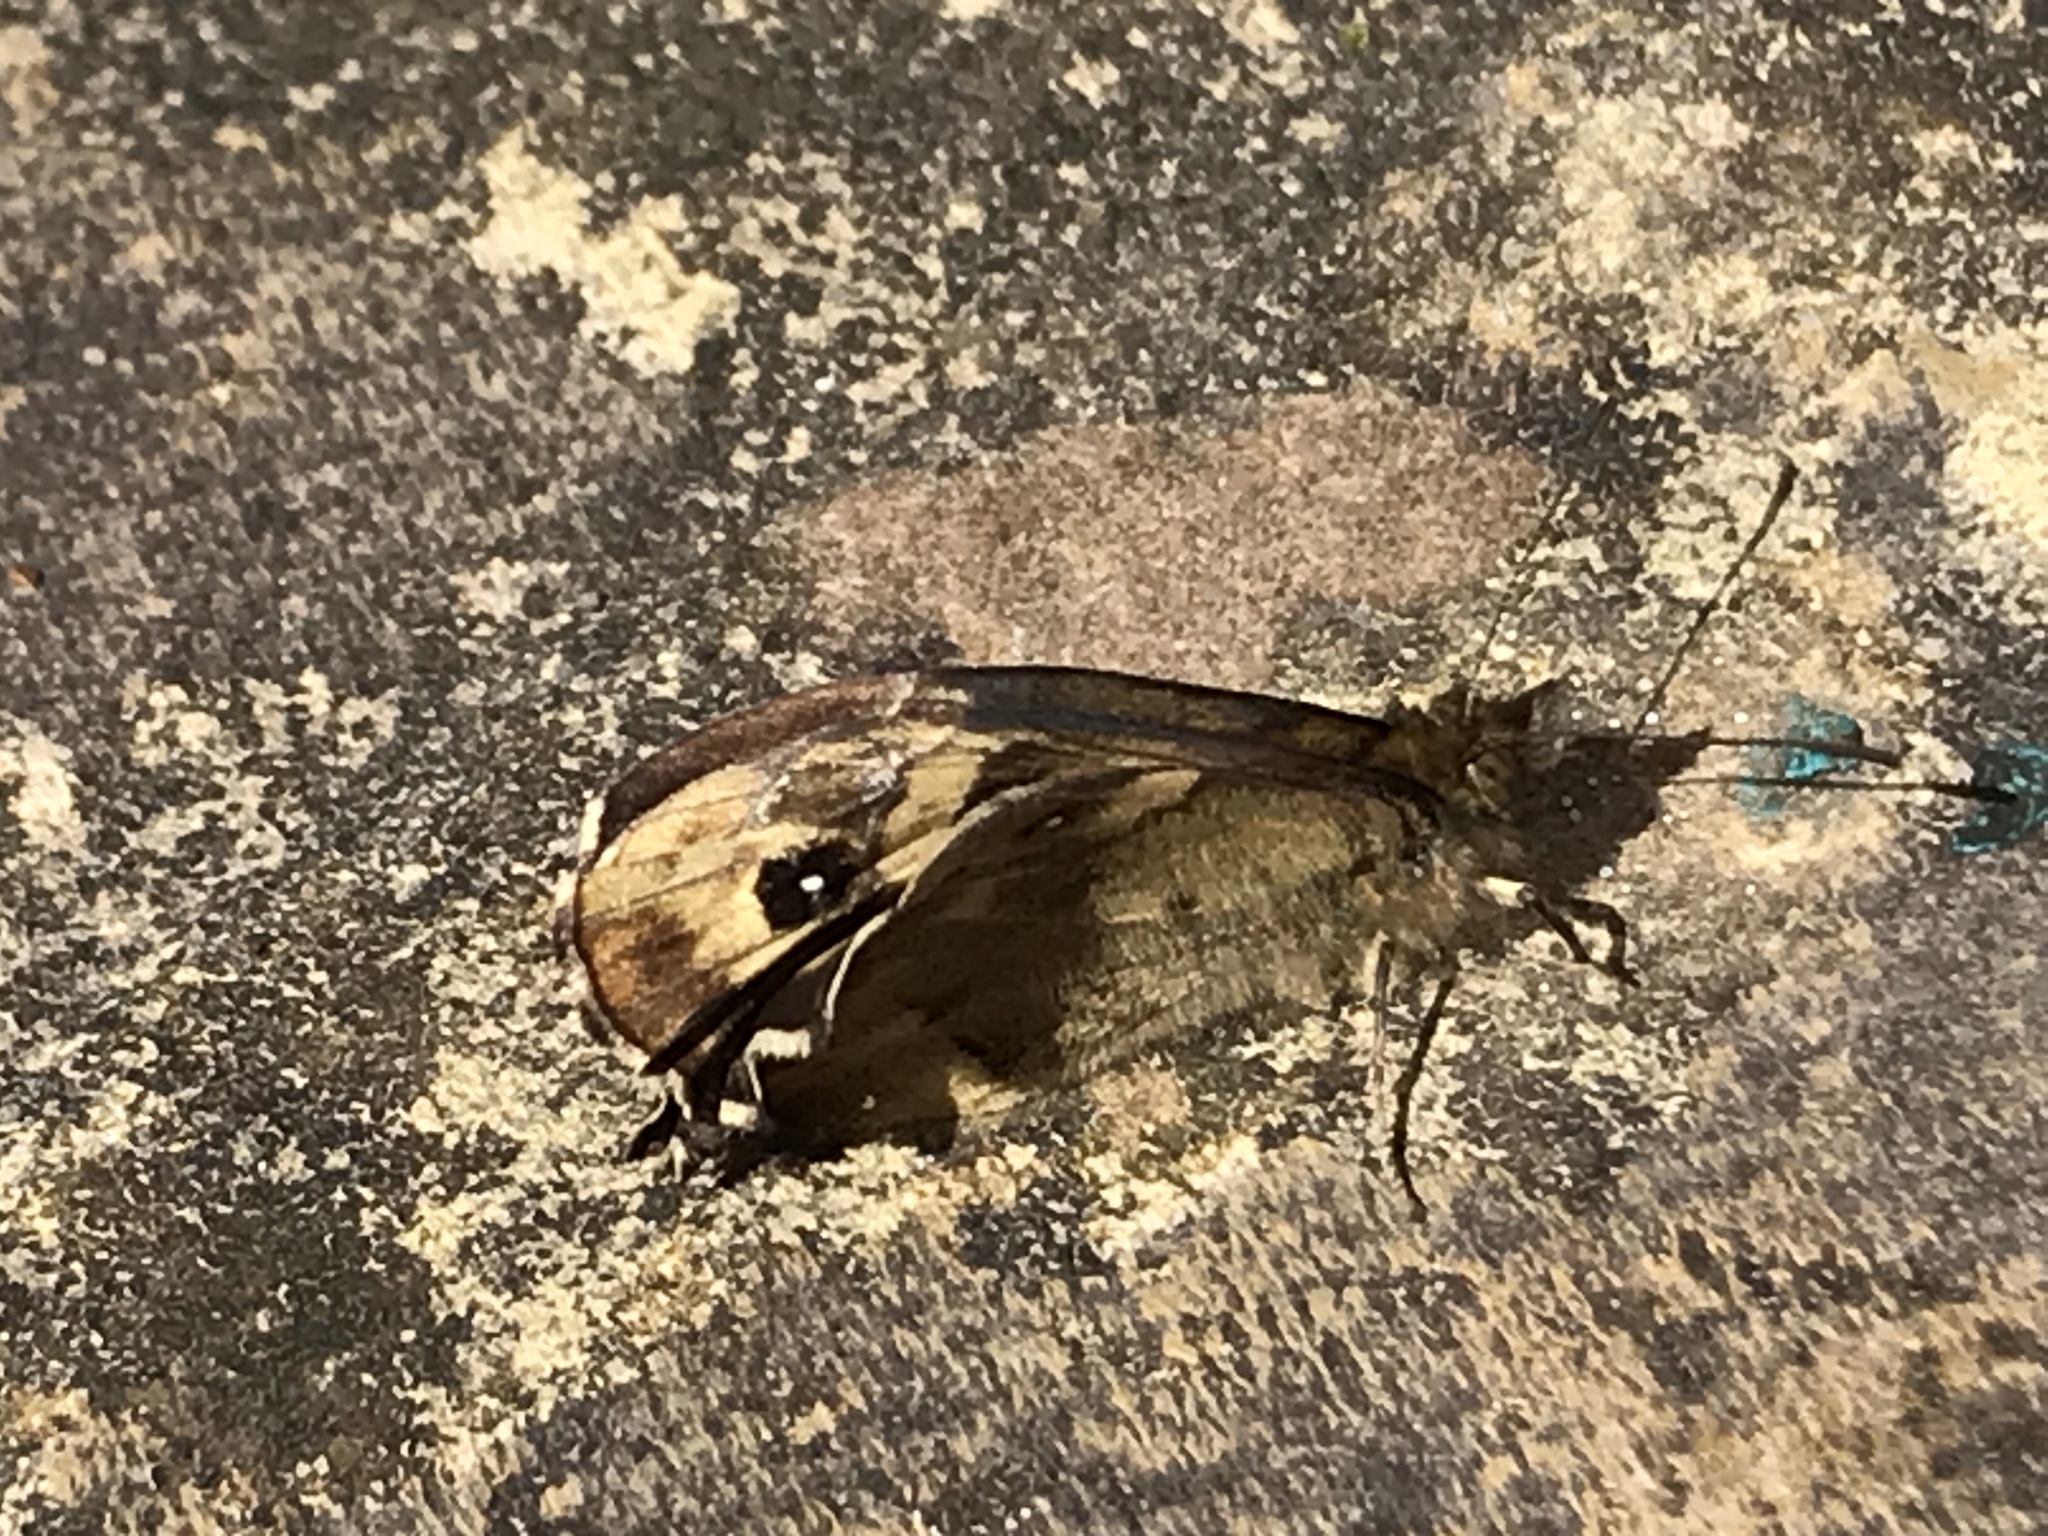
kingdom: Animalia
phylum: Arthropoda
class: Insecta
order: Lepidoptera
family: Nymphalidae
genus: Pararge
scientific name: Pararge aegeria
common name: Speckled wood
